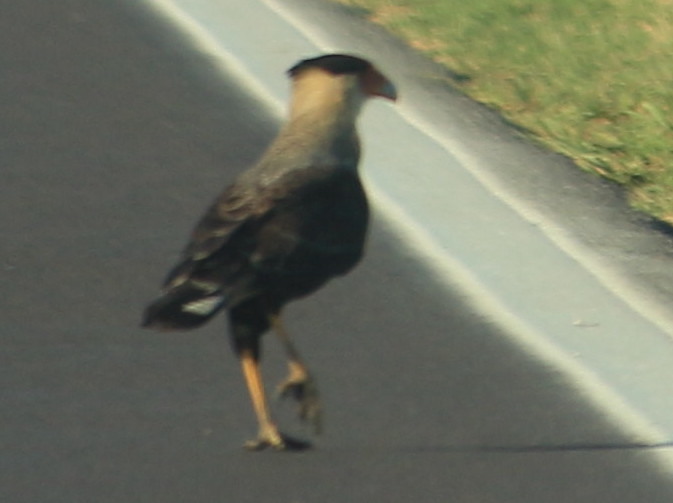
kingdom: Animalia
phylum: Chordata
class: Aves
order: Falconiformes
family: Falconidae
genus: Caracara
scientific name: Caracara plancus
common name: Southern caracara
